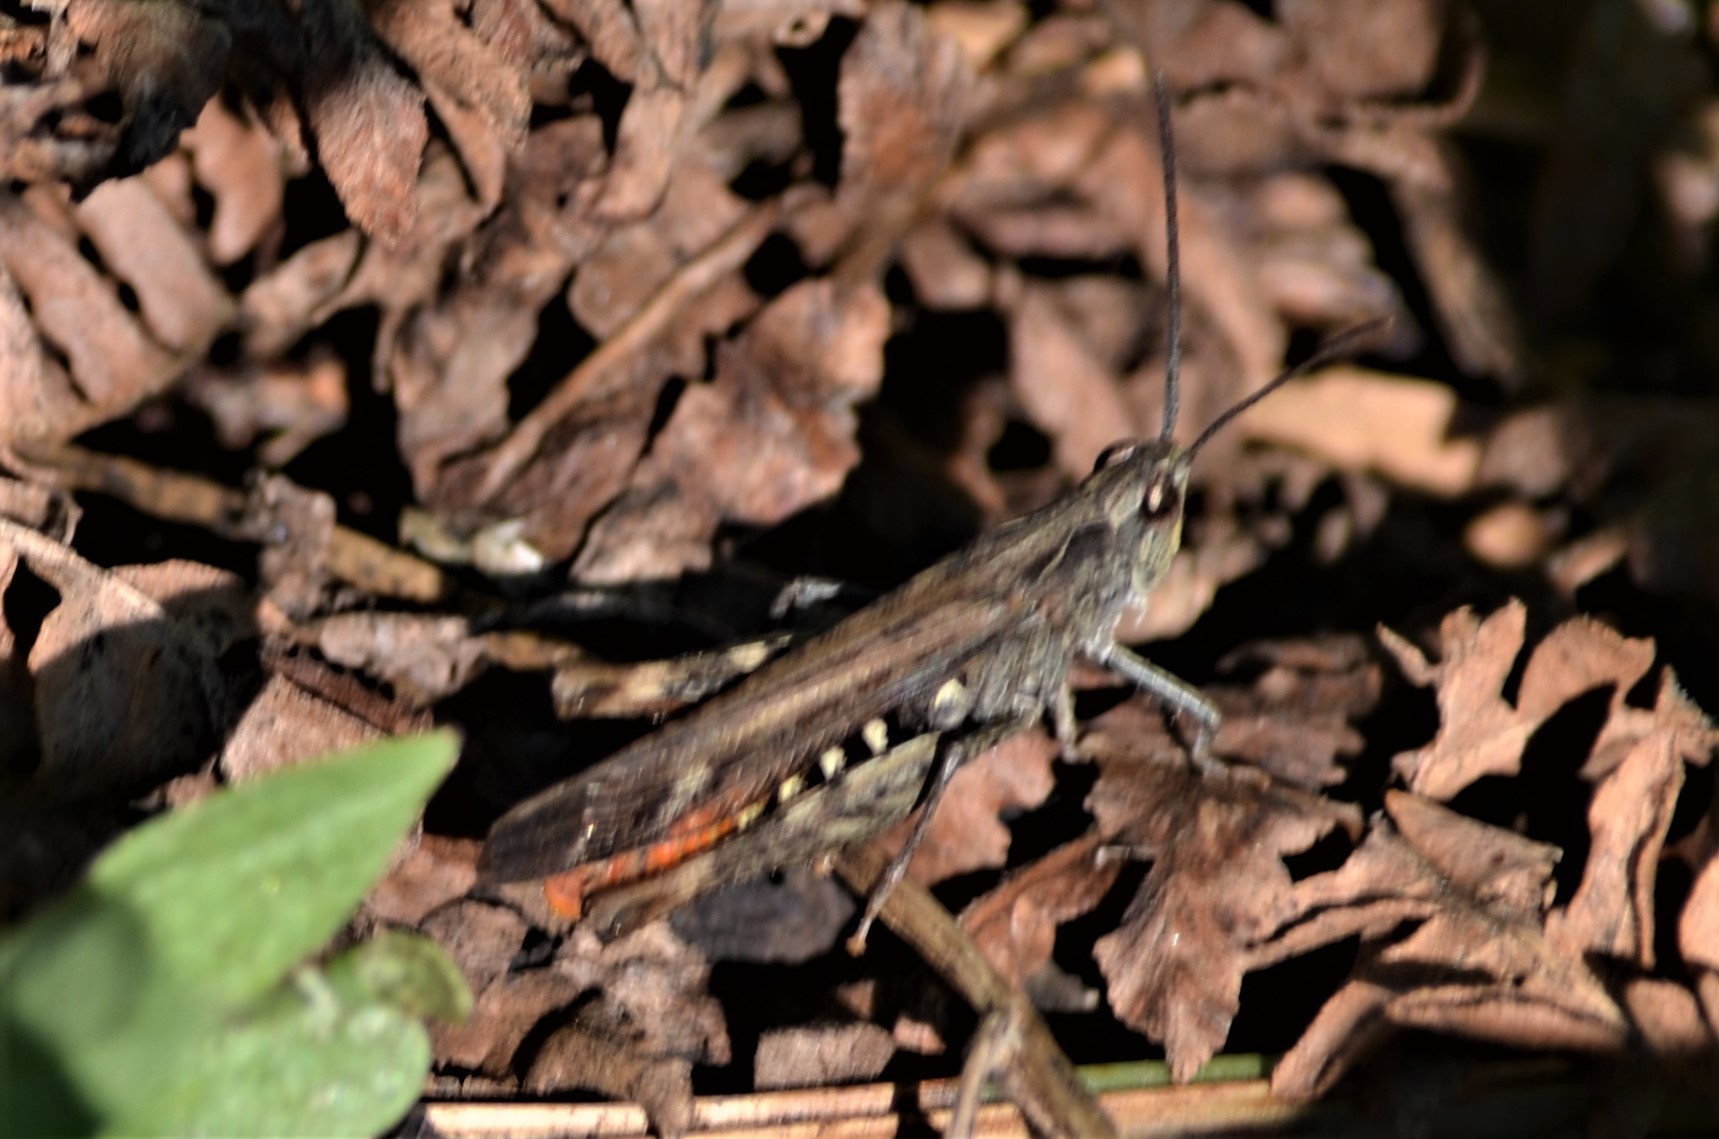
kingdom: Animalia
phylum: Arthropoda
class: Insecta
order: Orthoptera
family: Acrididae
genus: Chorthippus
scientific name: Chorthippus brunneus
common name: Field grasshopper
